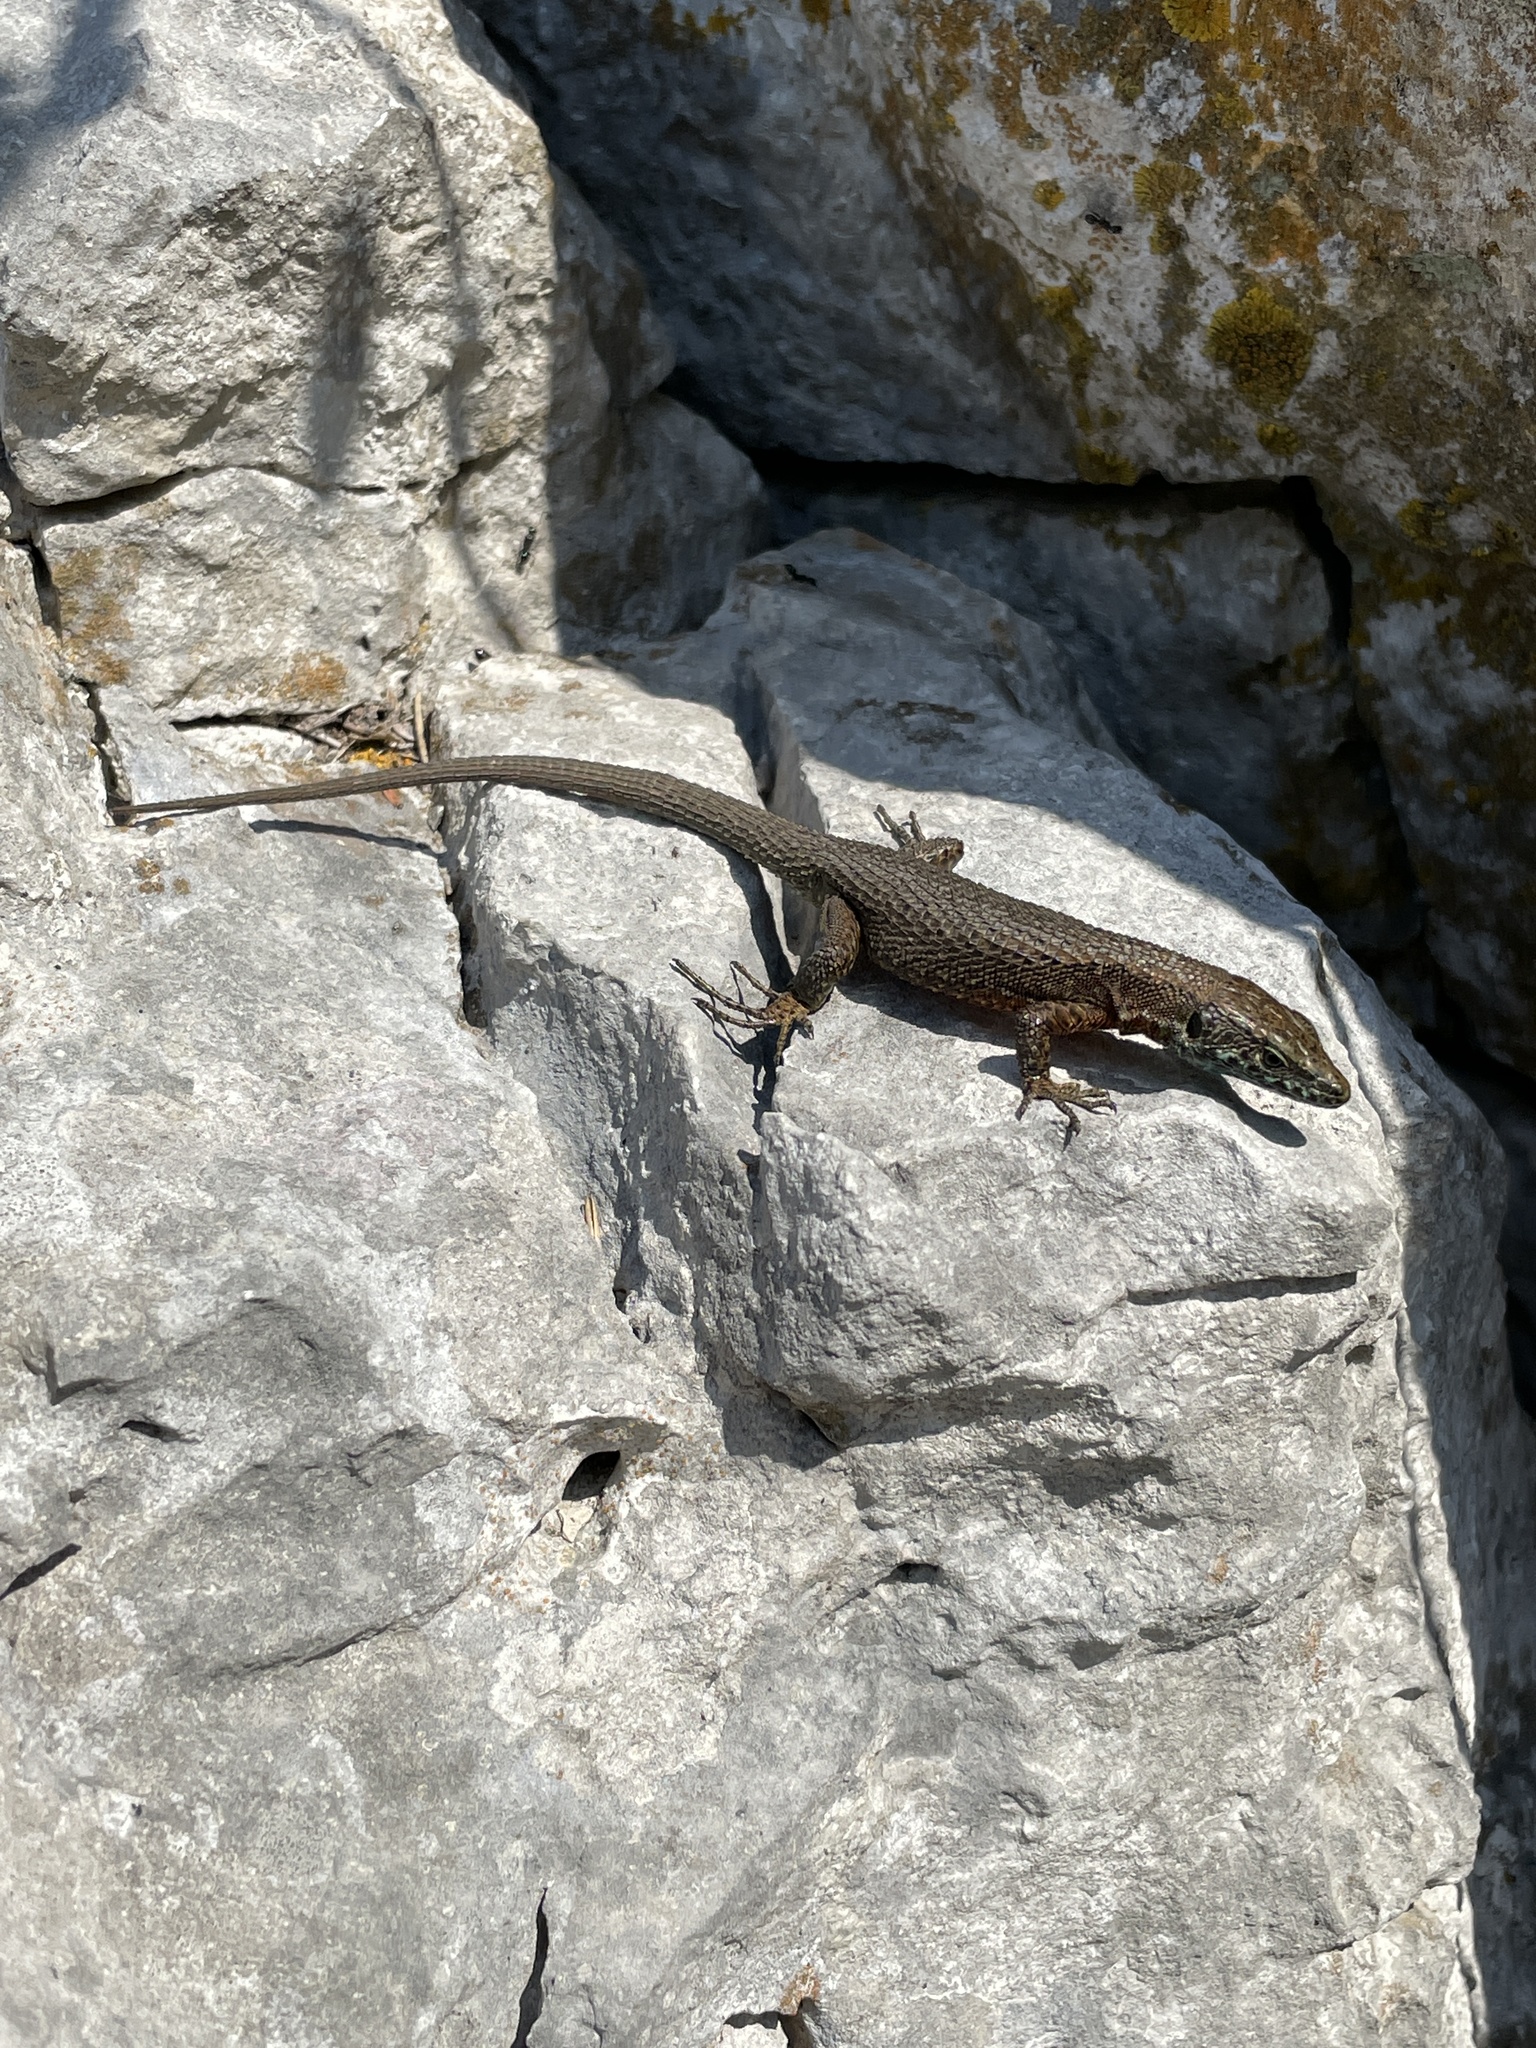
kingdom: Animalia
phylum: Chordata
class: Squamata
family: Lacertidae
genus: Algyroides
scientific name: Algyroides nigropunctatus
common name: Blue-throated keeled lizard
